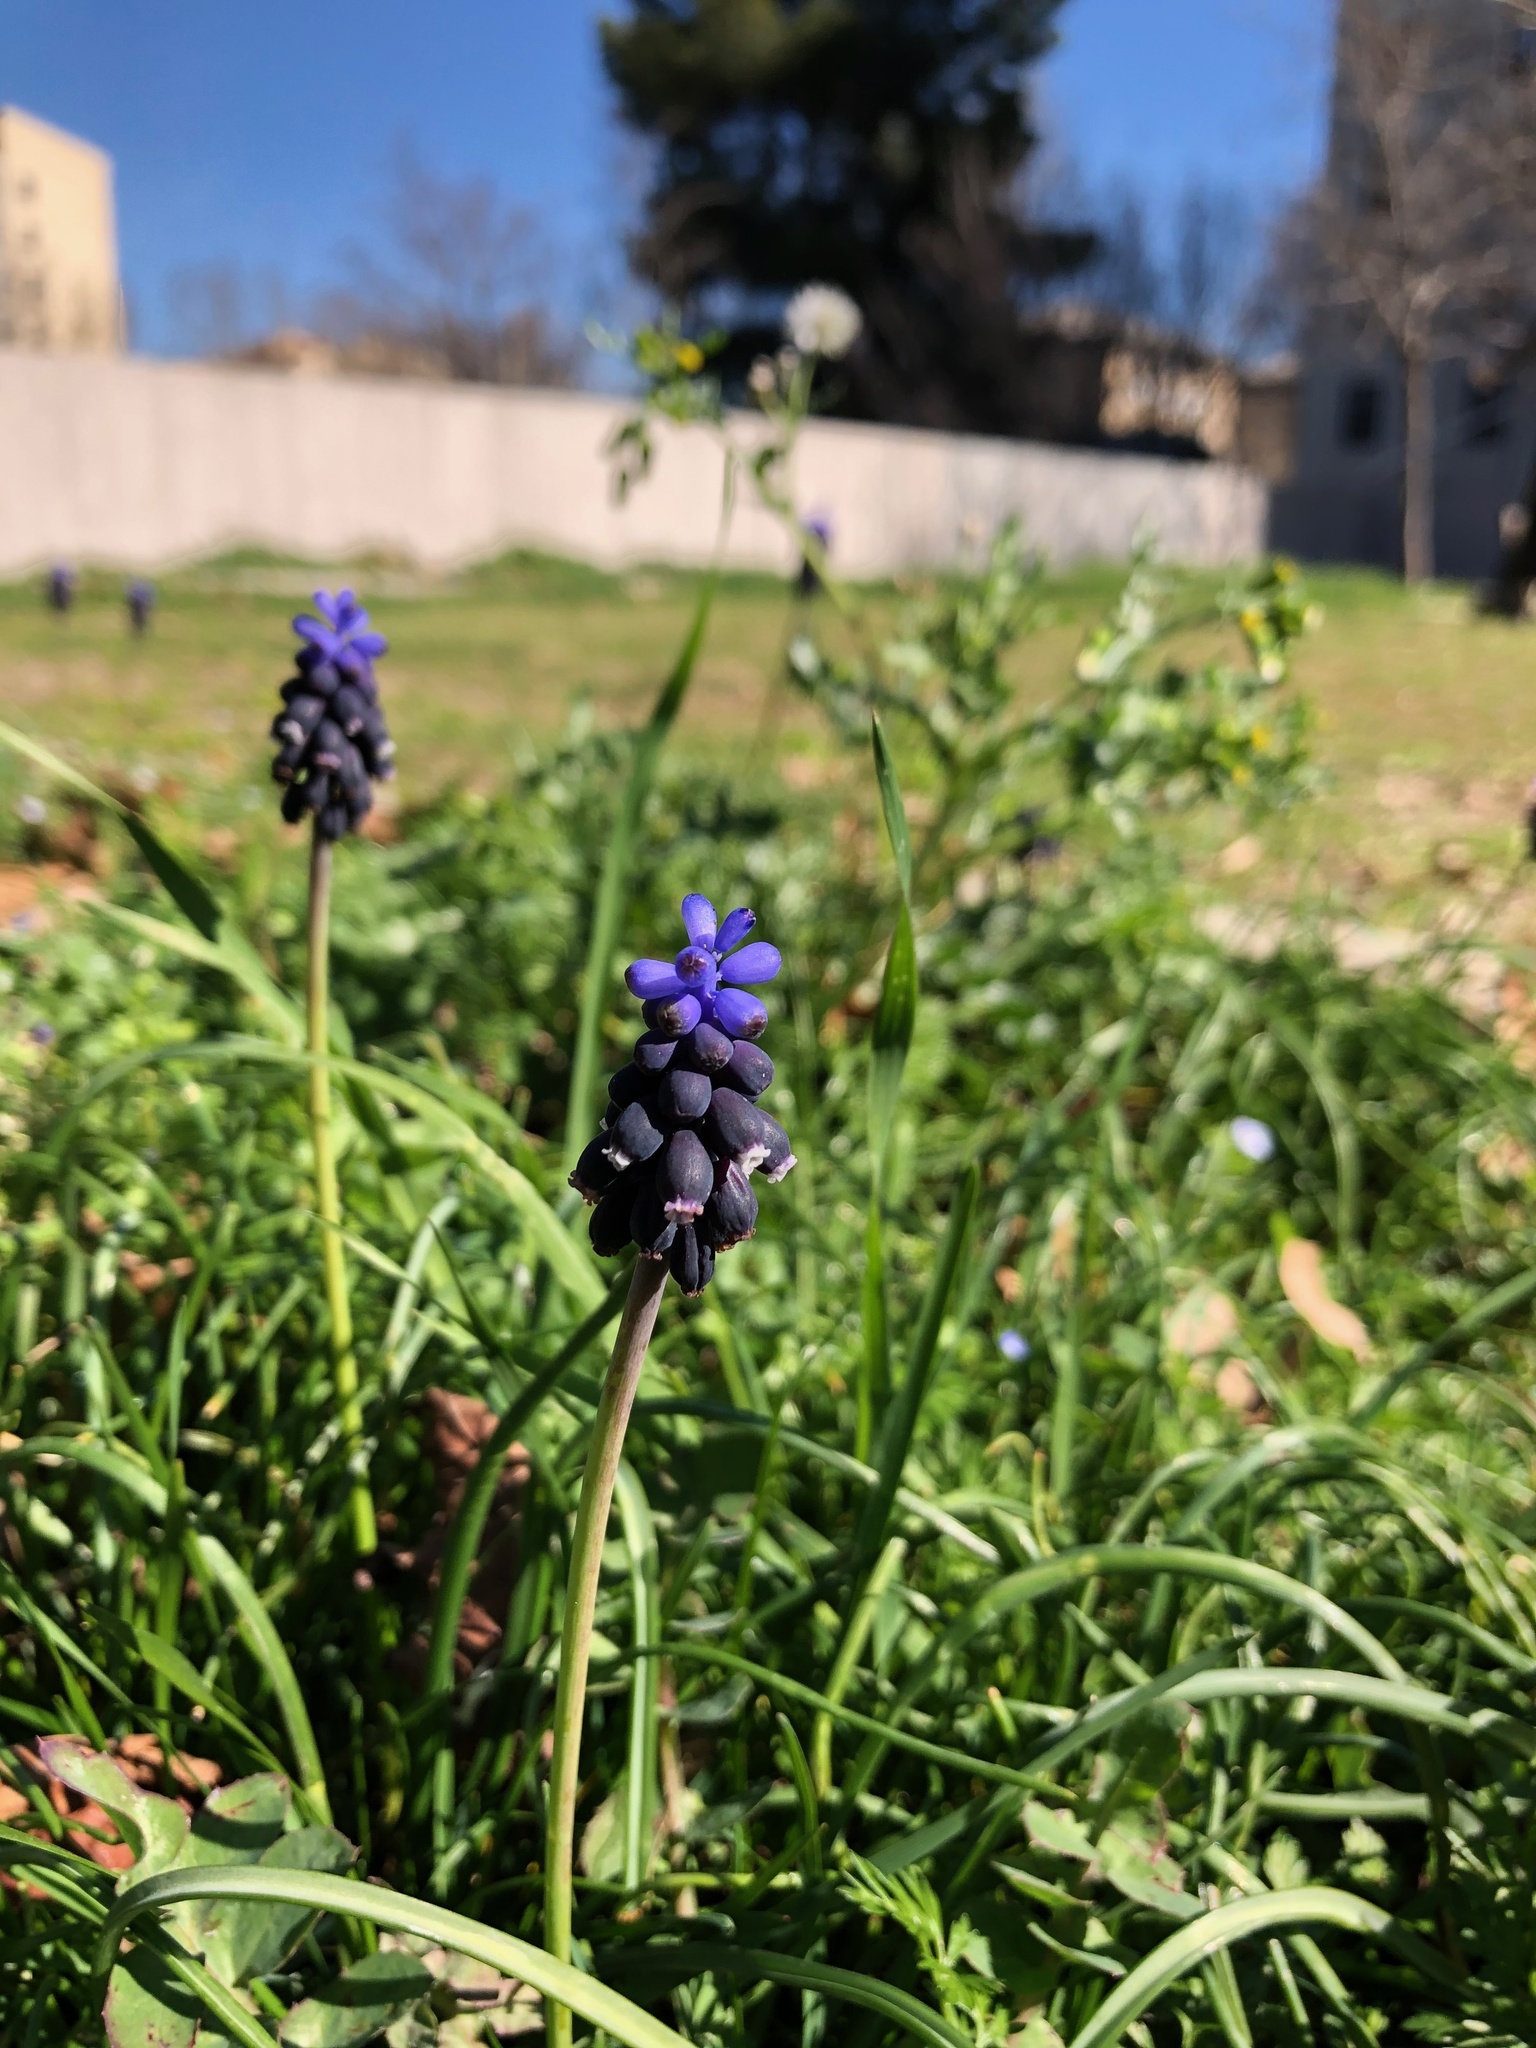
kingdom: Plantae
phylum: Tracheophyta
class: Liliopsida
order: Asparagales
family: Asparagaceae
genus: Muscari
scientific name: Muscari neglectum
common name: Grape-hyacinth
